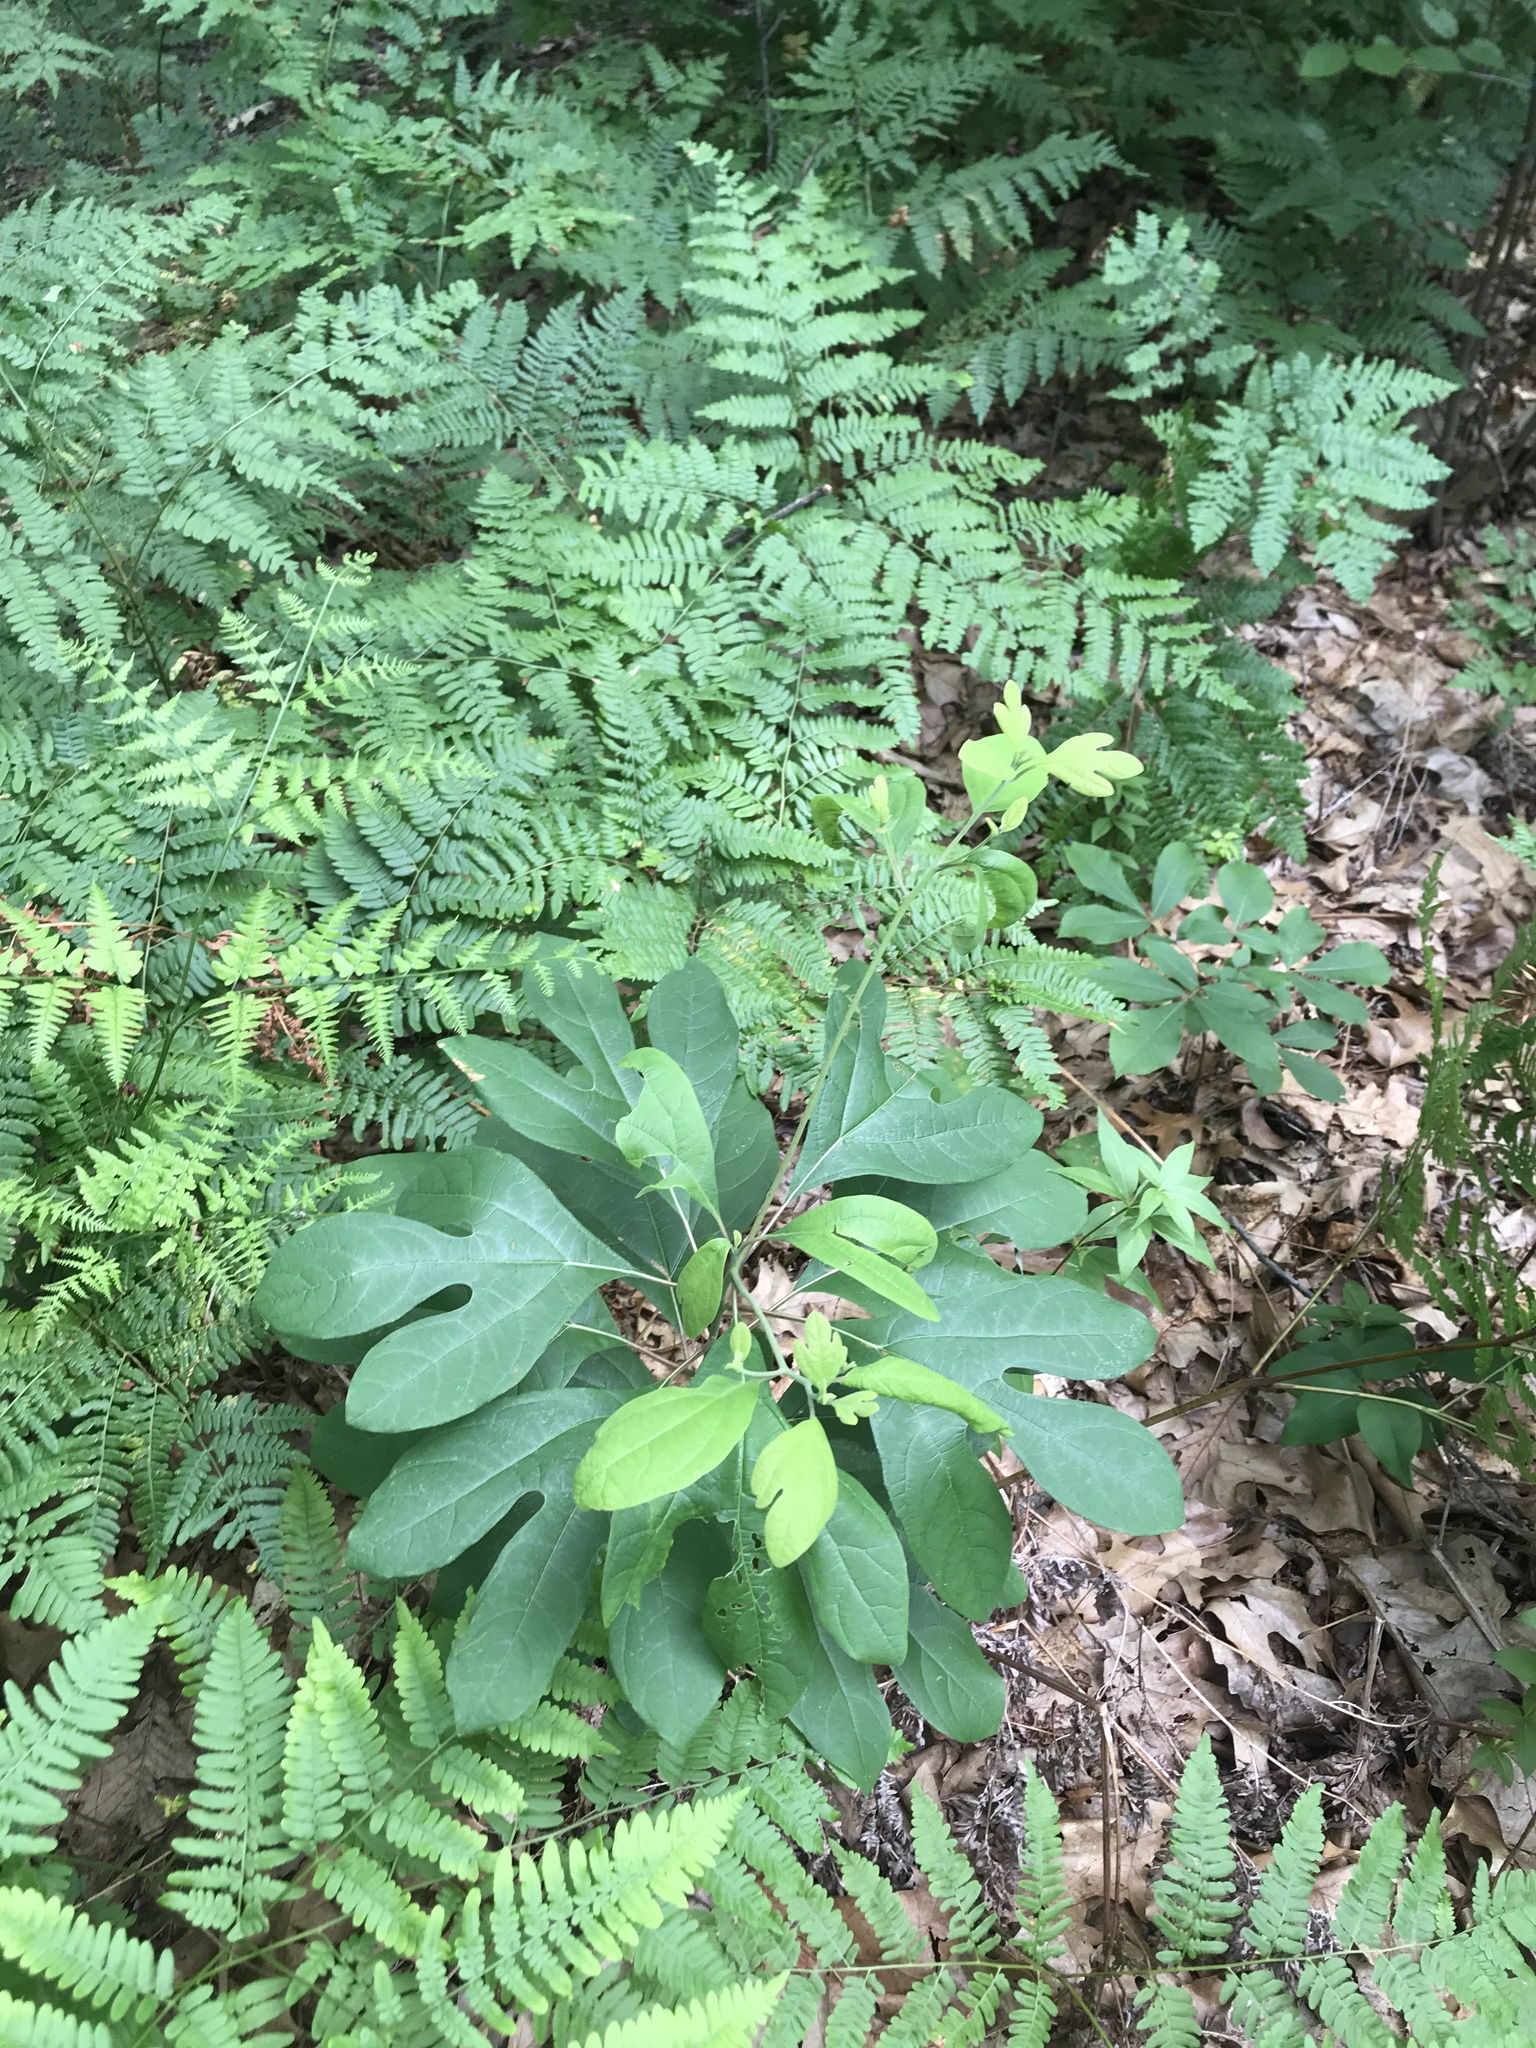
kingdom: Plantae
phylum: Tracheophyta
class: Magnoliopsida
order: Laurales
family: Lauraceae
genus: Sassafras
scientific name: Sassafras albidum
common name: Sassafras
